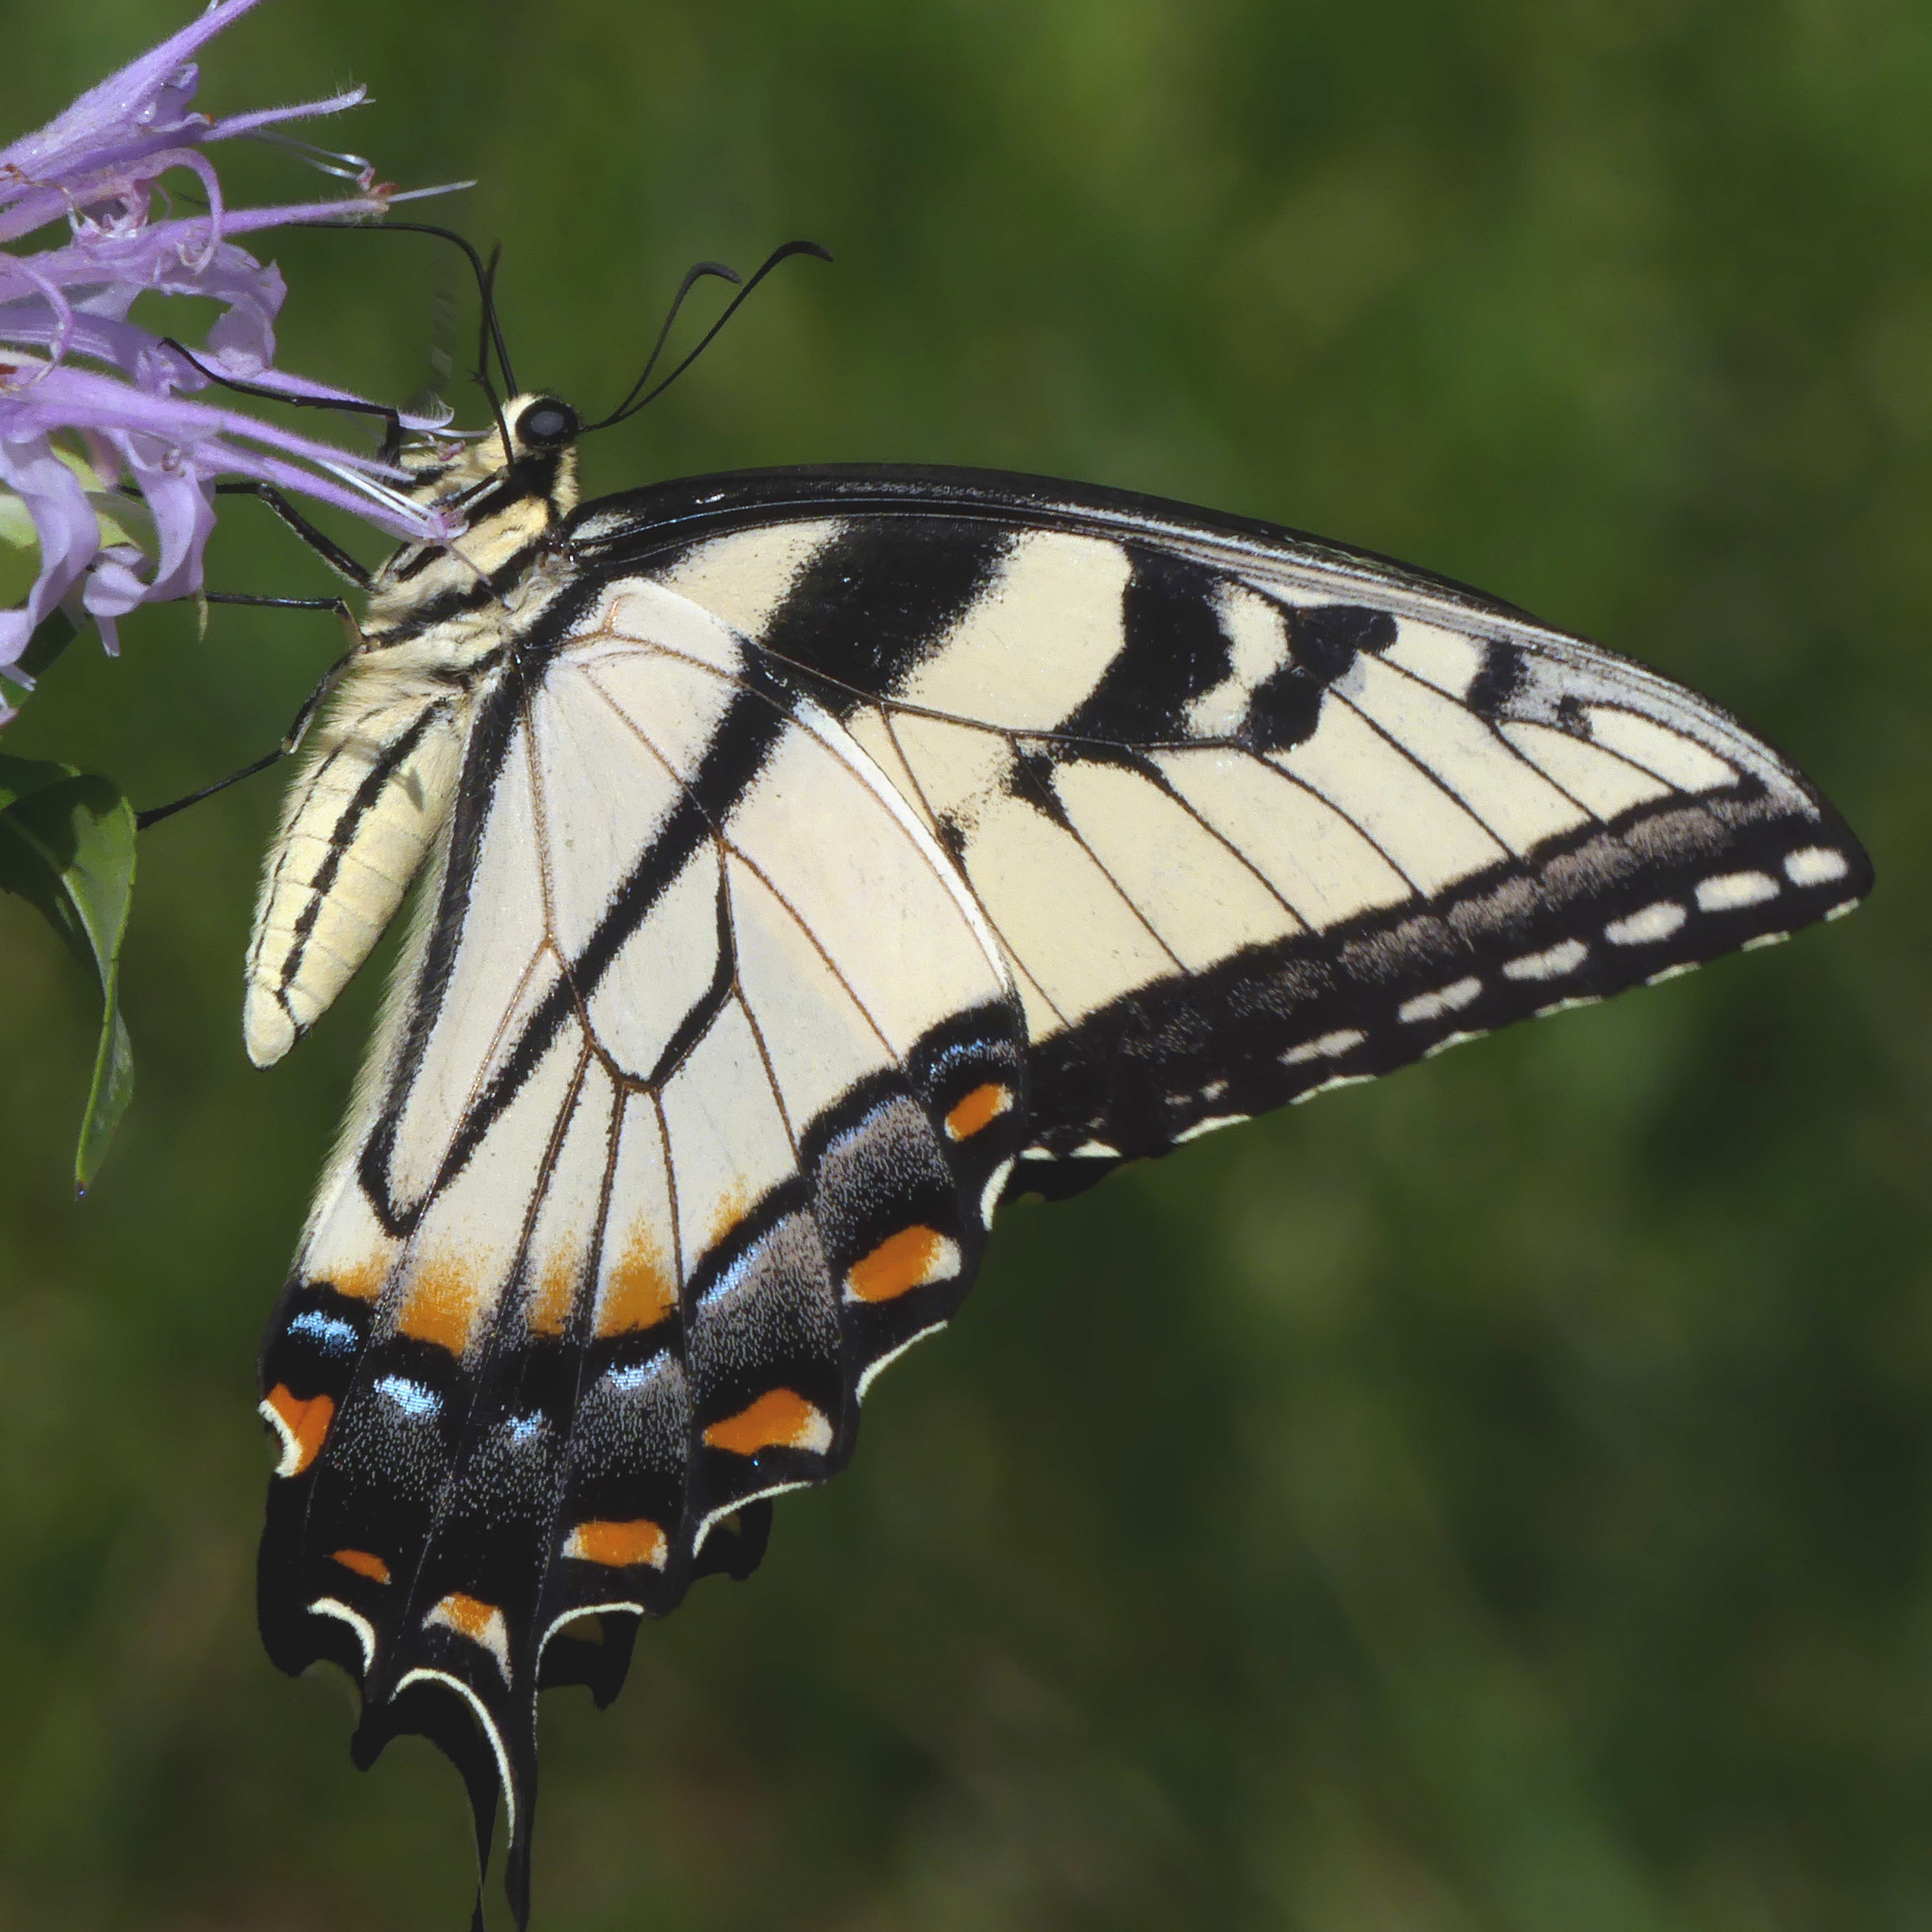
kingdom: Animalia
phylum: Arthropoda
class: Insecta
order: Lepidoptera
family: Papilionidae
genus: Papilio
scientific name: Papilio glaucus
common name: Tiger swallowtail
